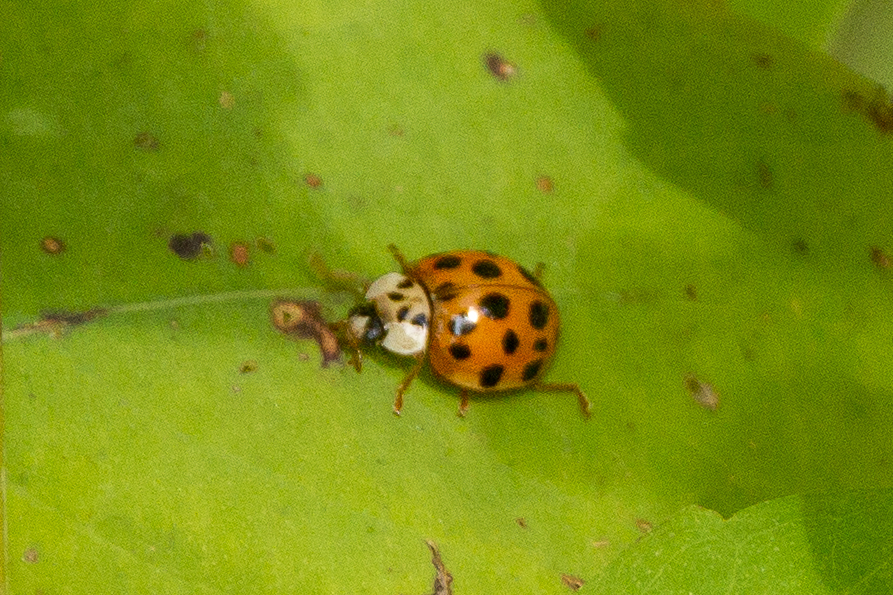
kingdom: Animalia
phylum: Arthropoda
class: Insecta
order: Coleoptera
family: Coccinellidae
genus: Harmonia
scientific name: Harmonia axyridis
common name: Harlequin ladybird
